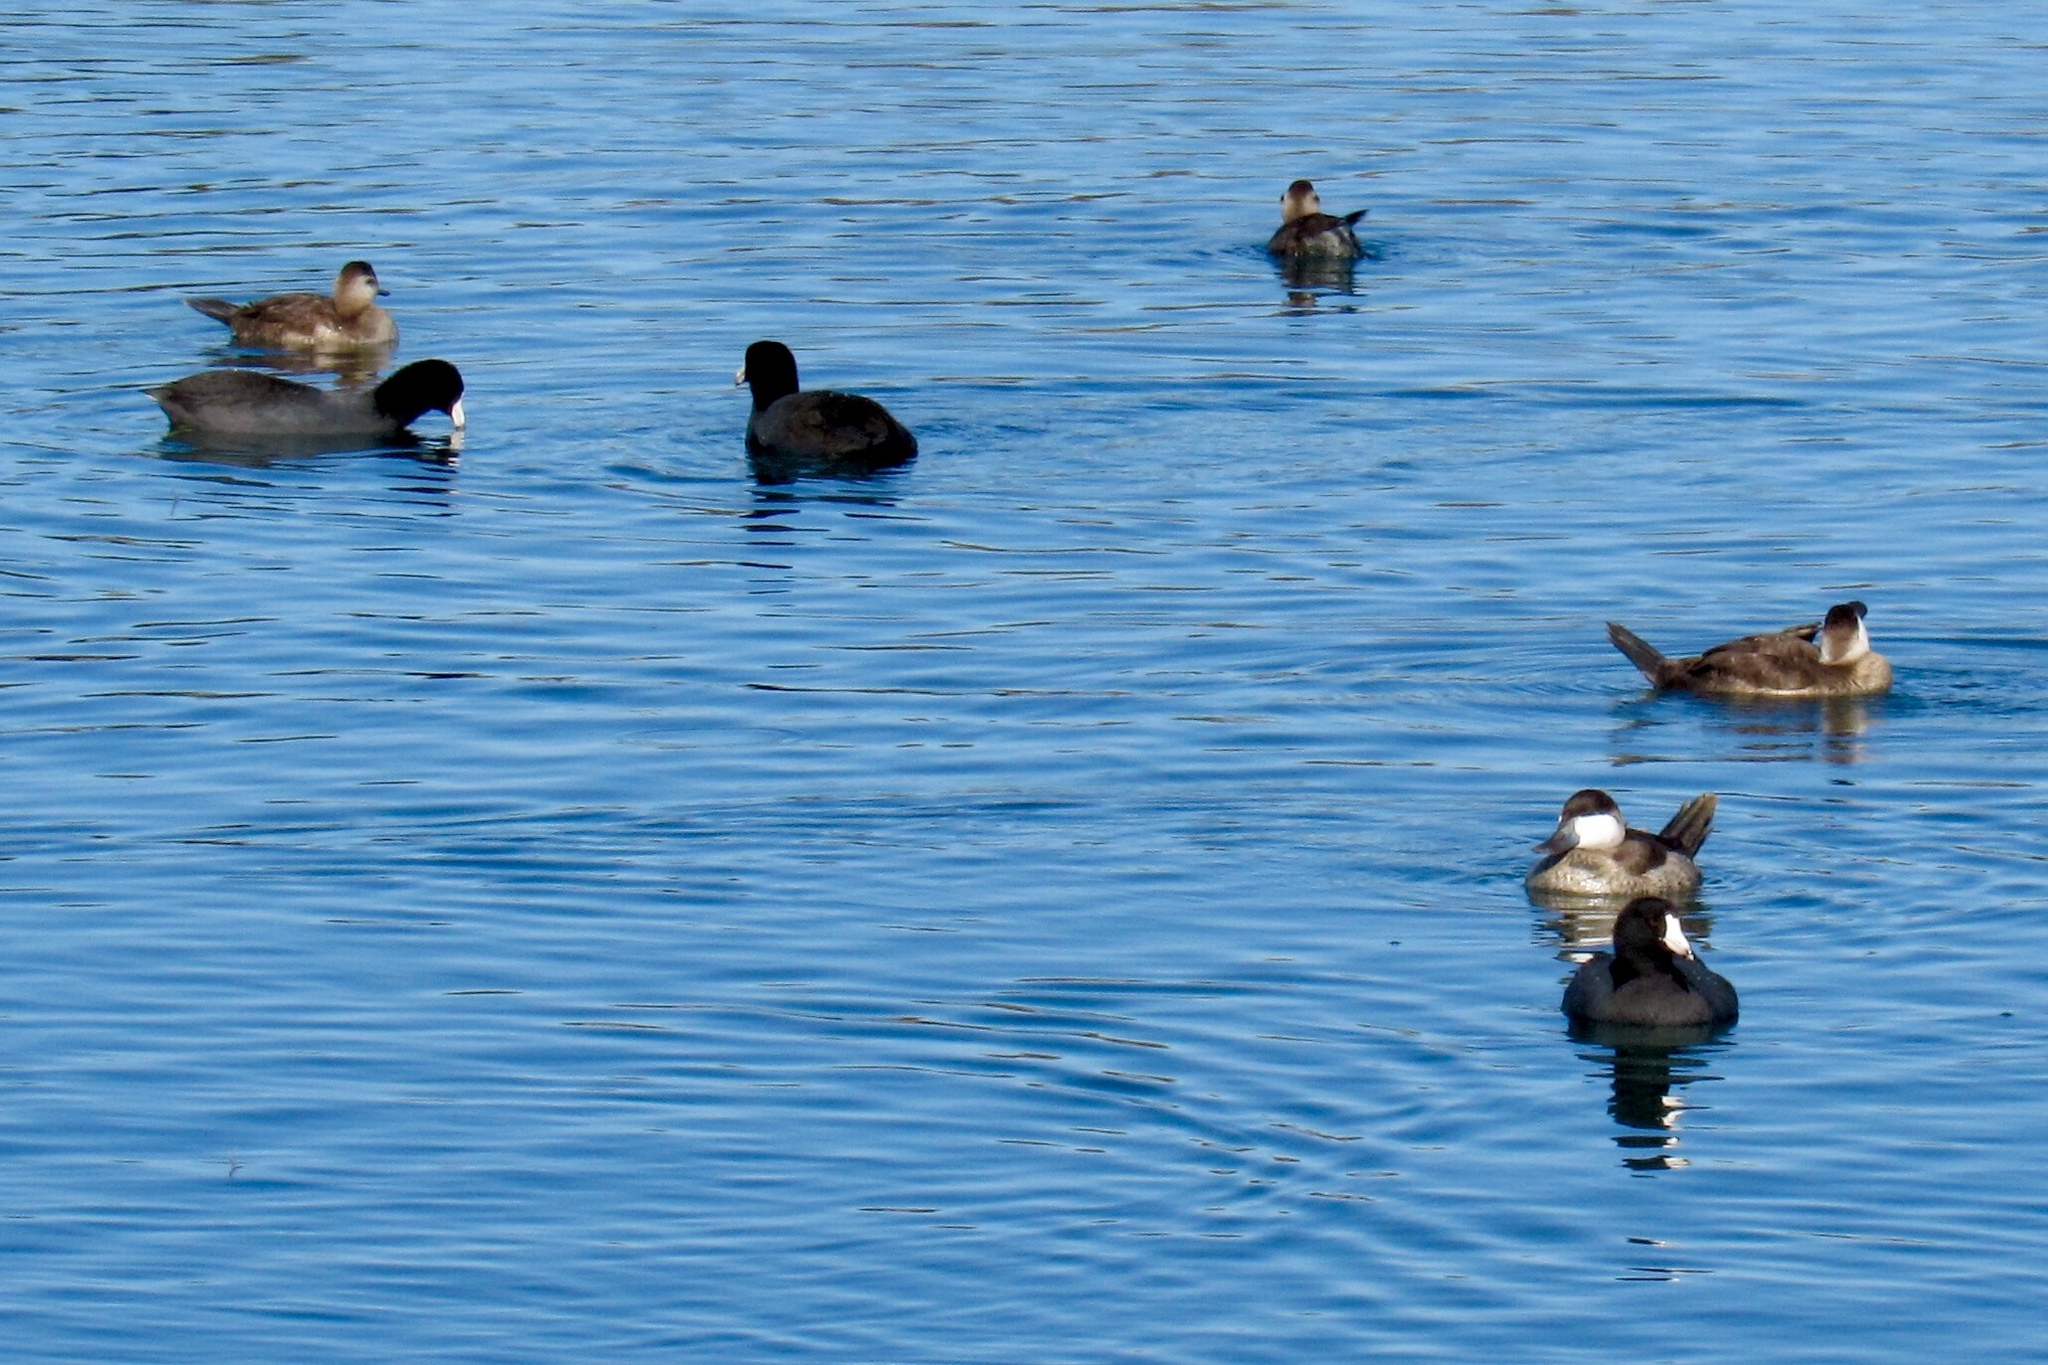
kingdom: Animalia
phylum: Chordata
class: Aves
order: Gruiformes
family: Rallidae
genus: Fulica
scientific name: Fulica americana
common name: American coot
